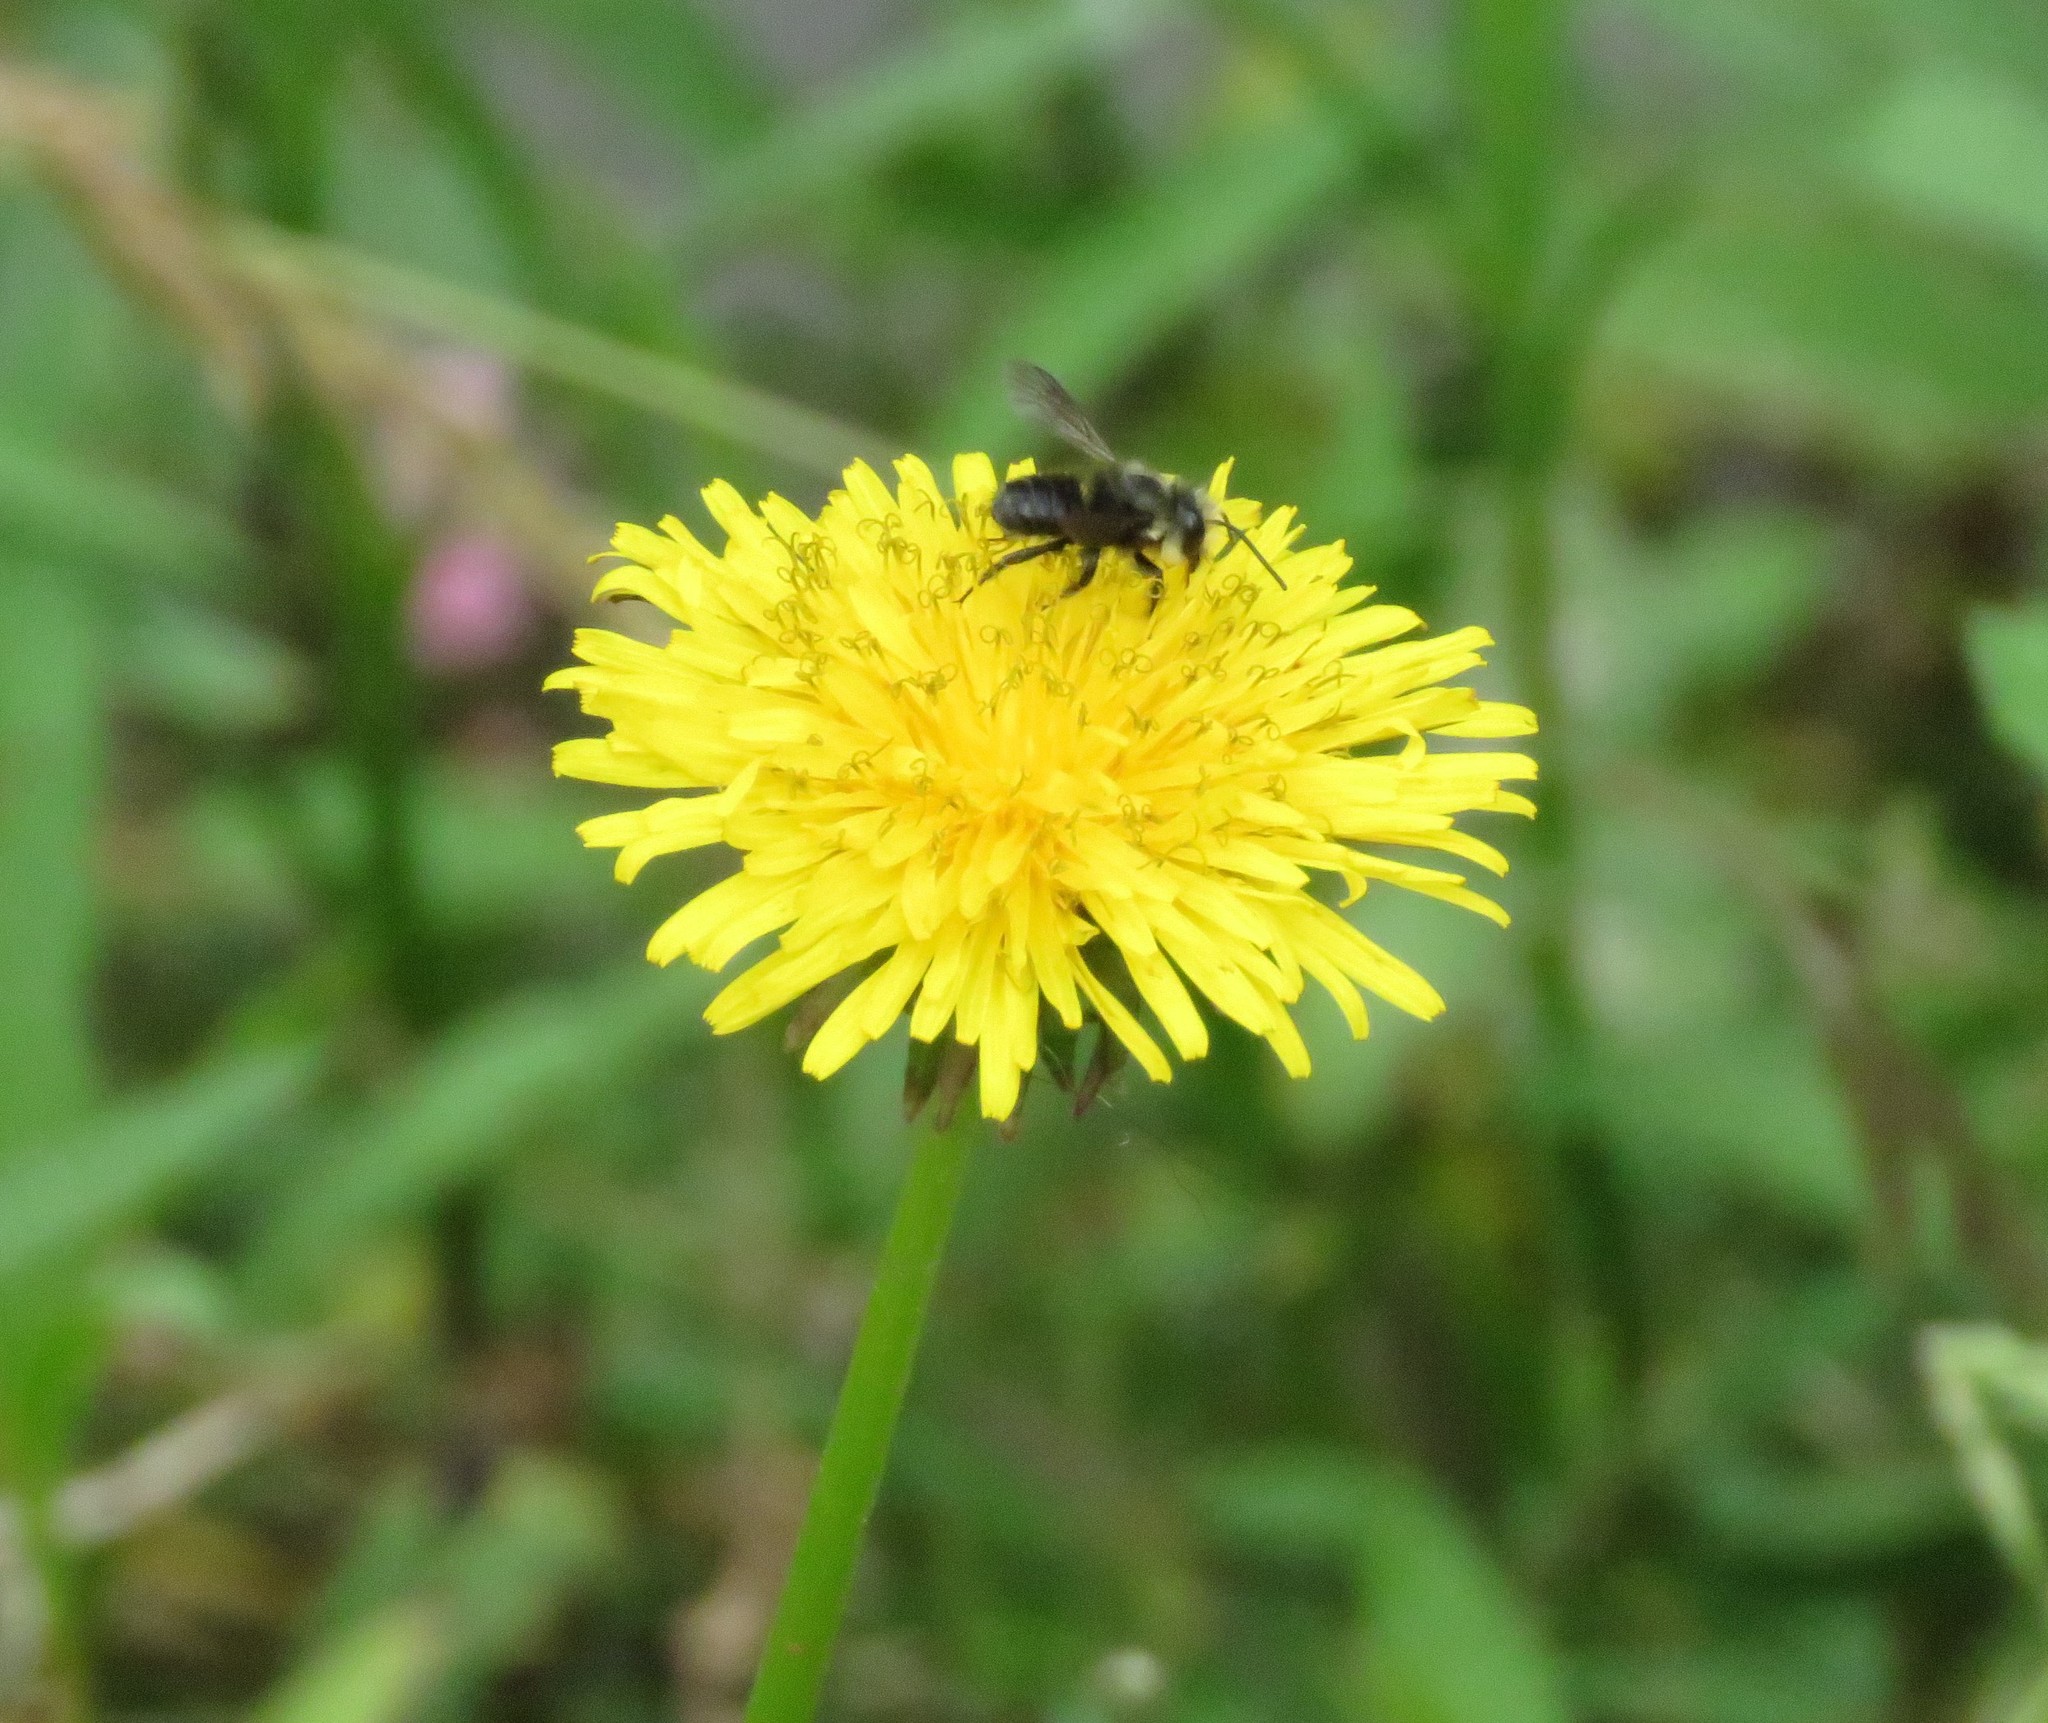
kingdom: Animalia
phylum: Arthropoda
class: Insecta
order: Hymenoptera
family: Megachilidae
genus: Megachile
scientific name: Megachile amparo
